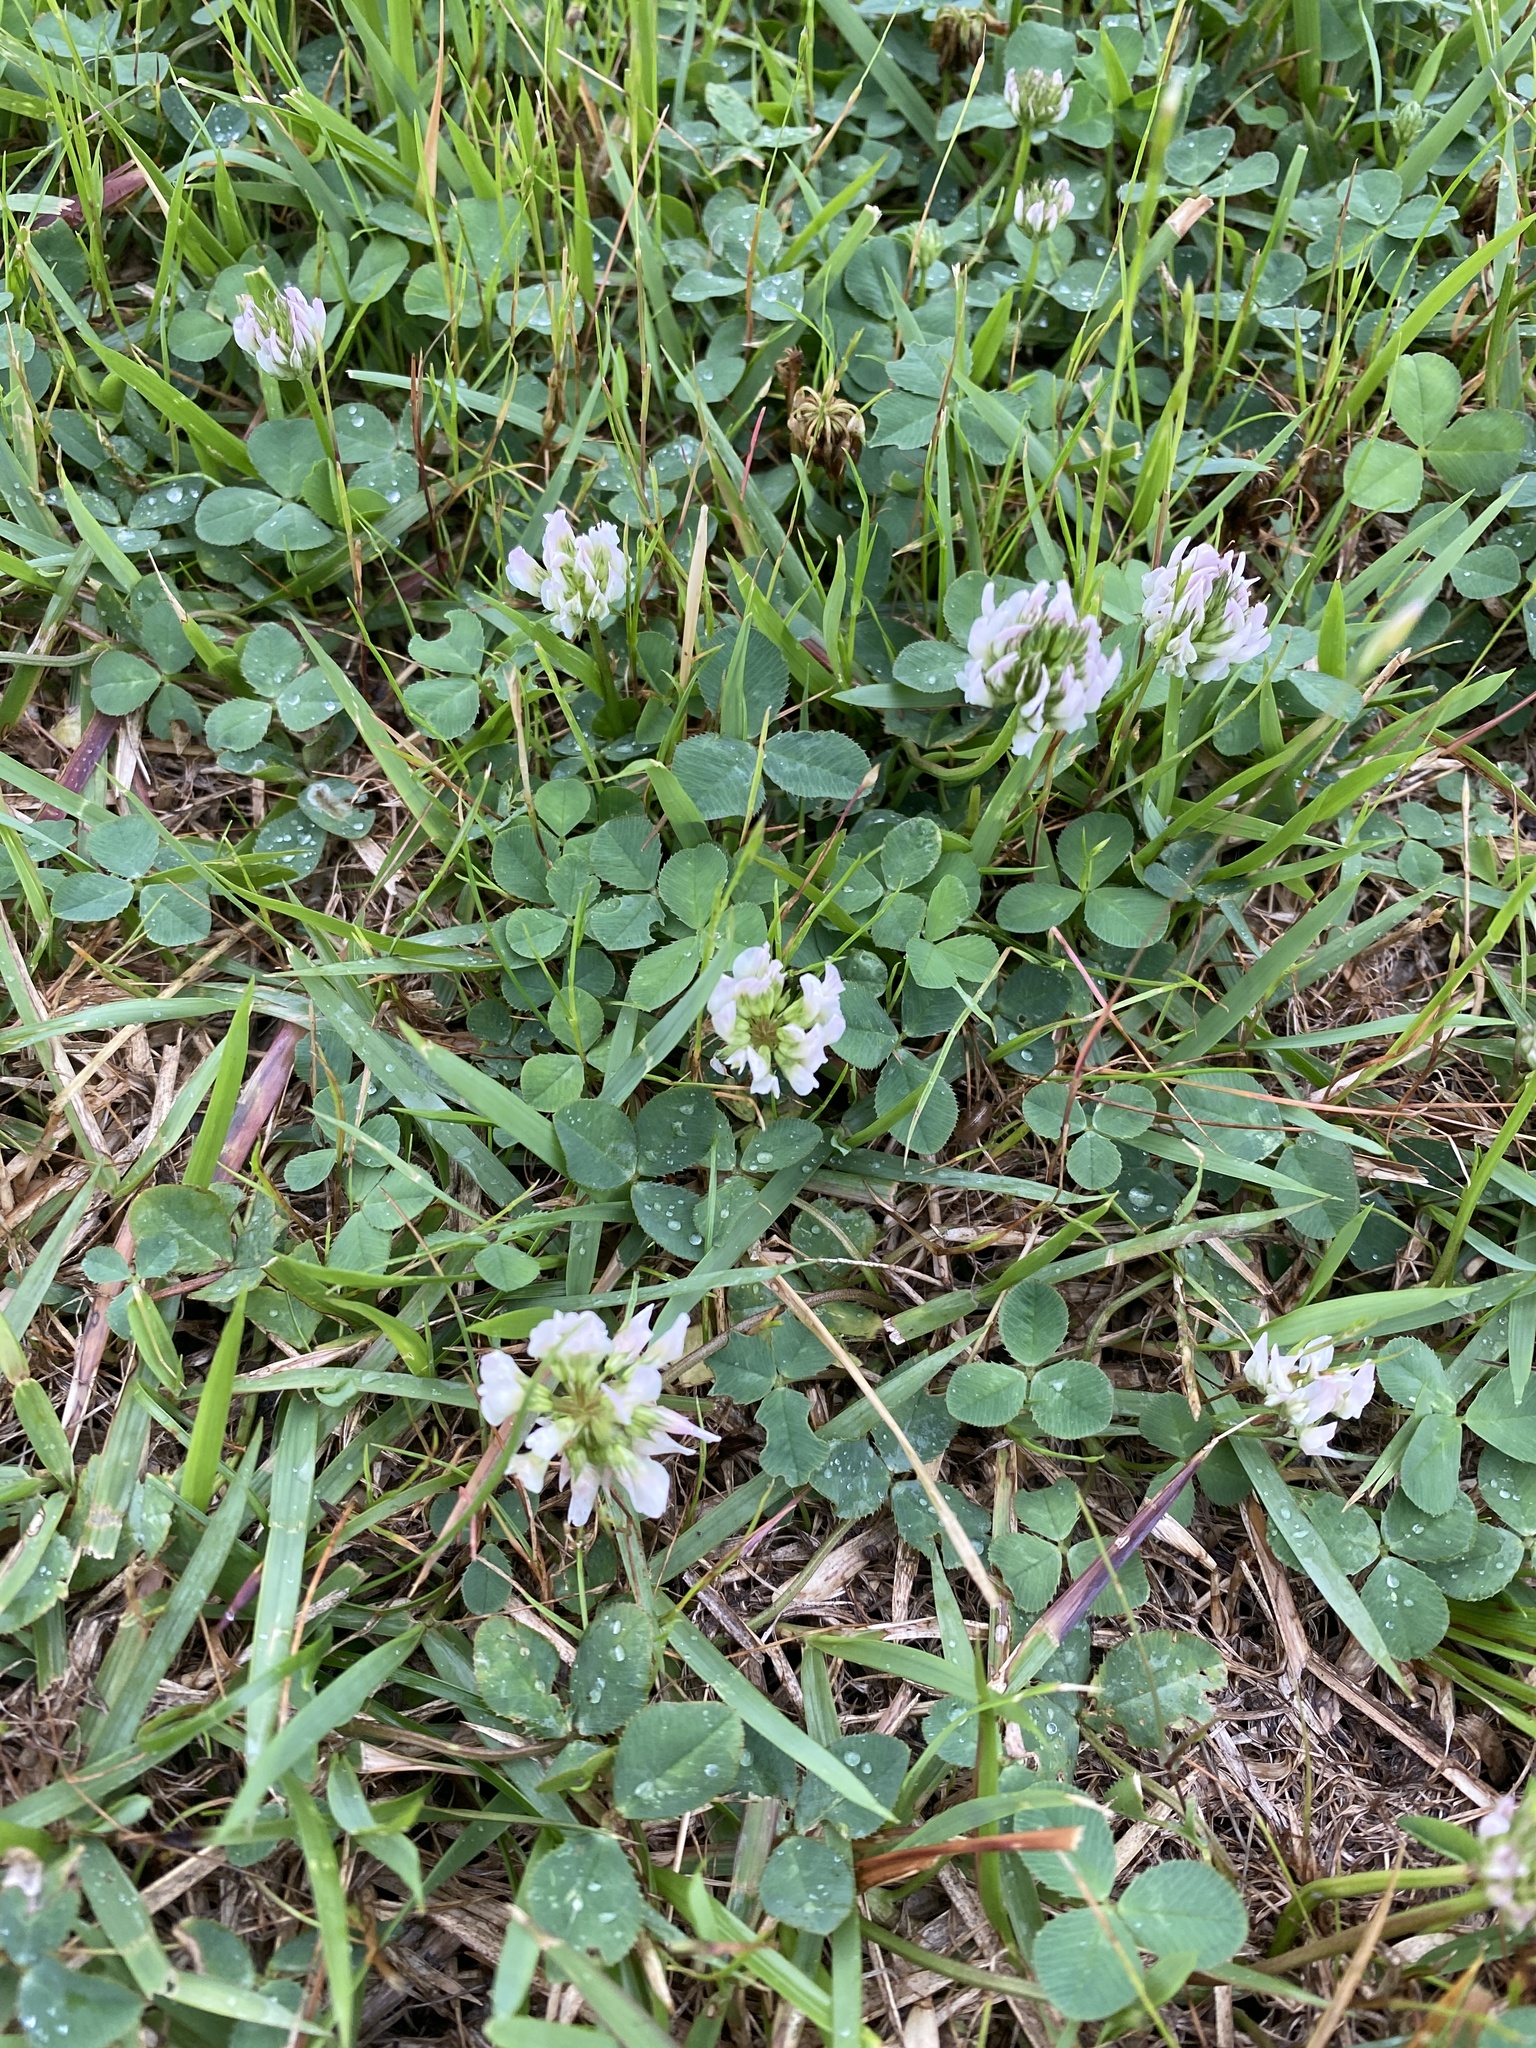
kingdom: Plantae
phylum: Tracheophyta
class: Magnoliopsida
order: Fabales
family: Fabaceae
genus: Trifolium
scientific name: Trifolium repens
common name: White clover
